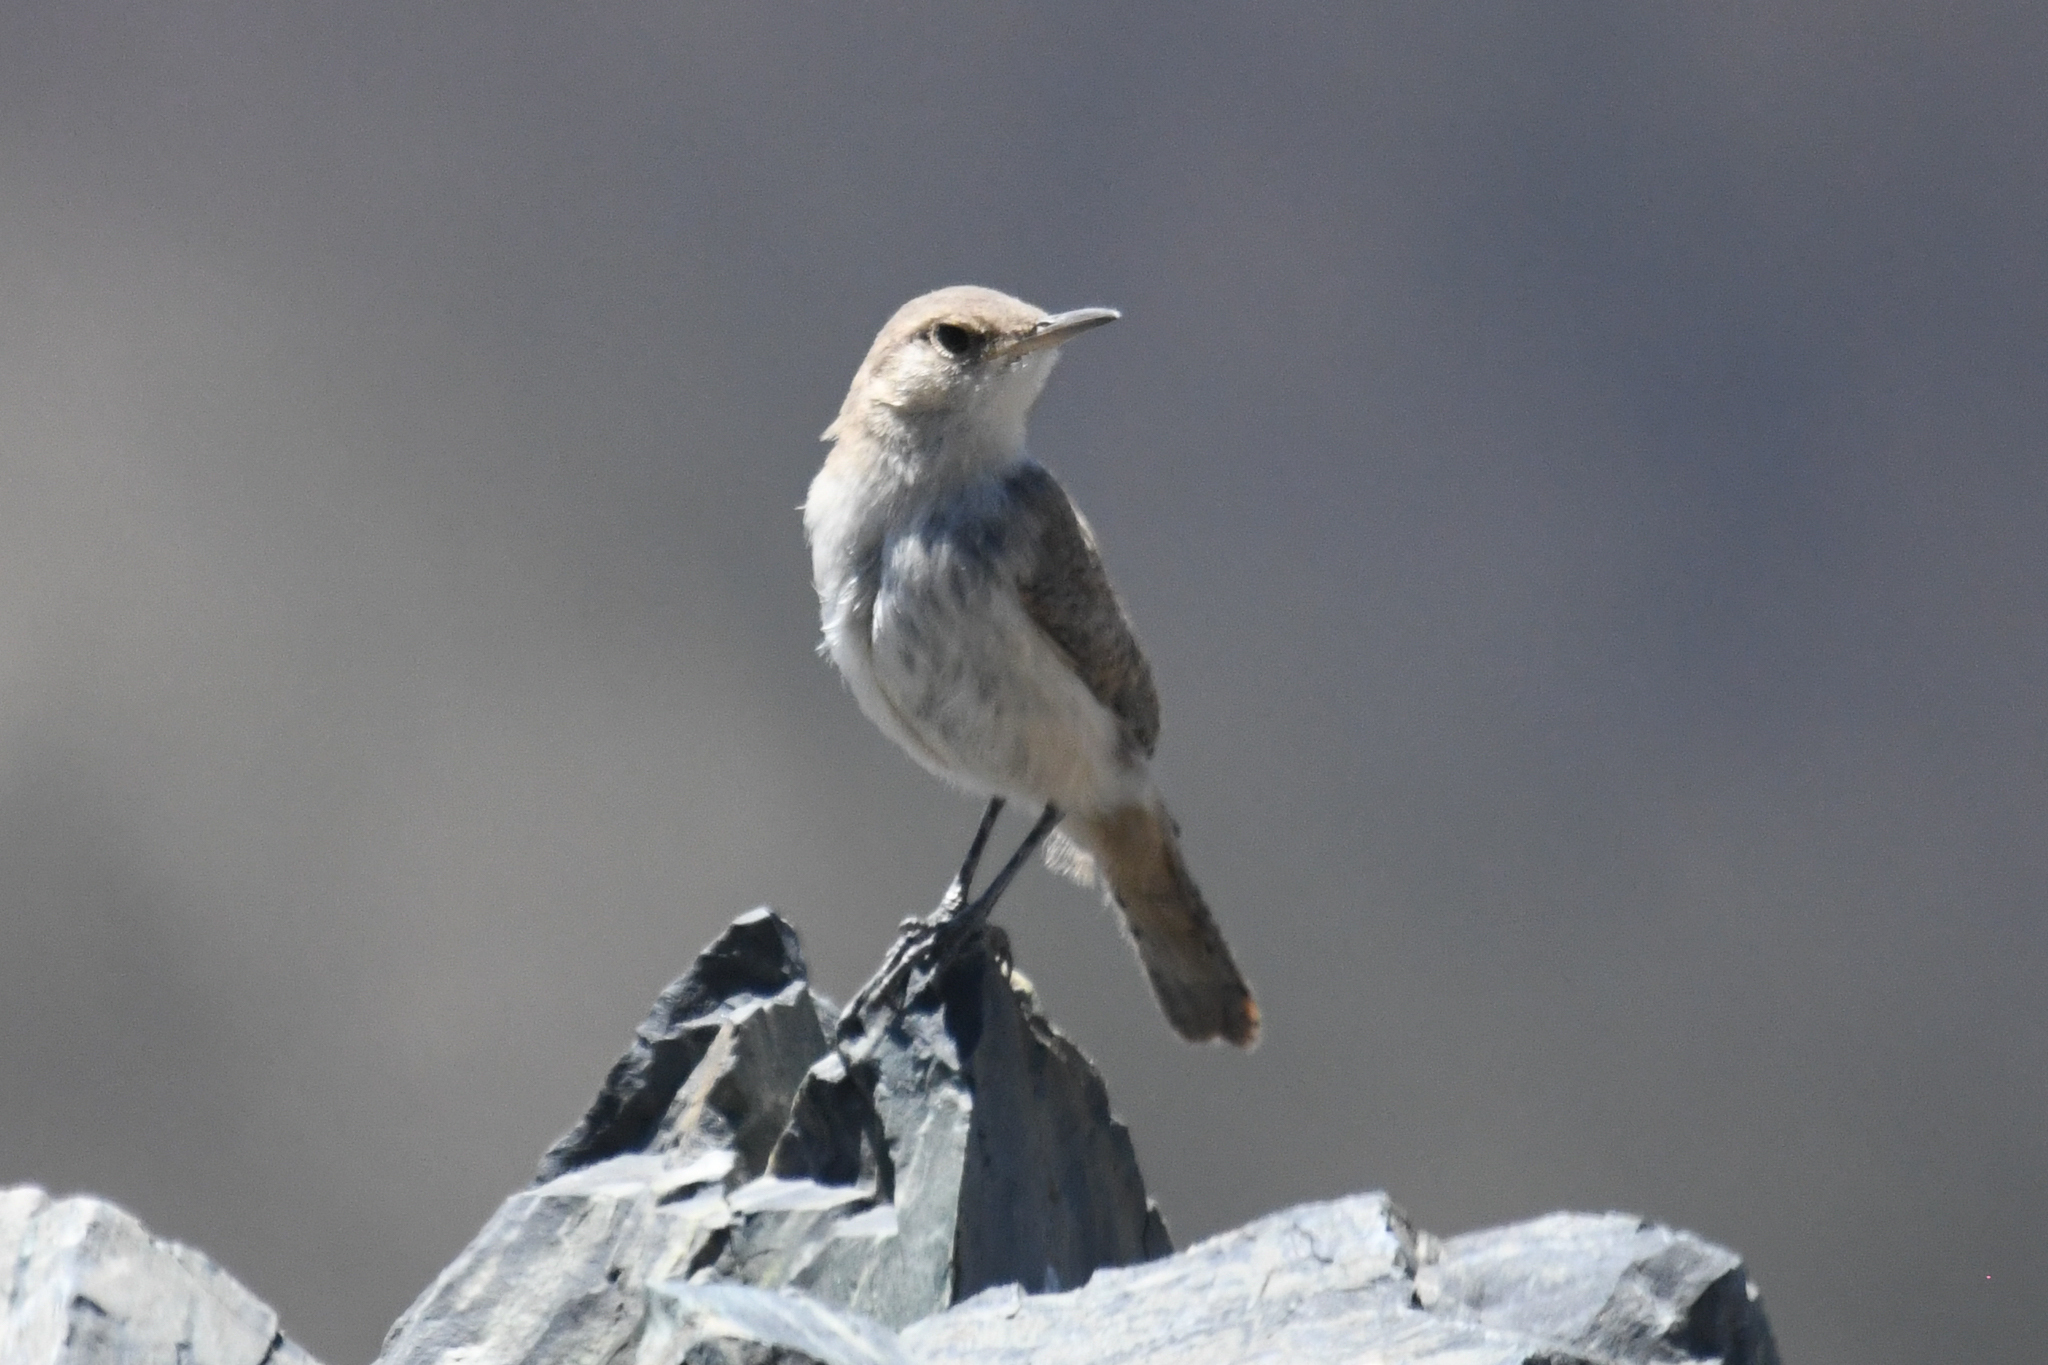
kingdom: Animalia
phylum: Chordata
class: Aves
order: Passeriformes
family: Troglodytidae
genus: Salpinctes
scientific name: Salpinctes obsoletus
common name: Rock wren
